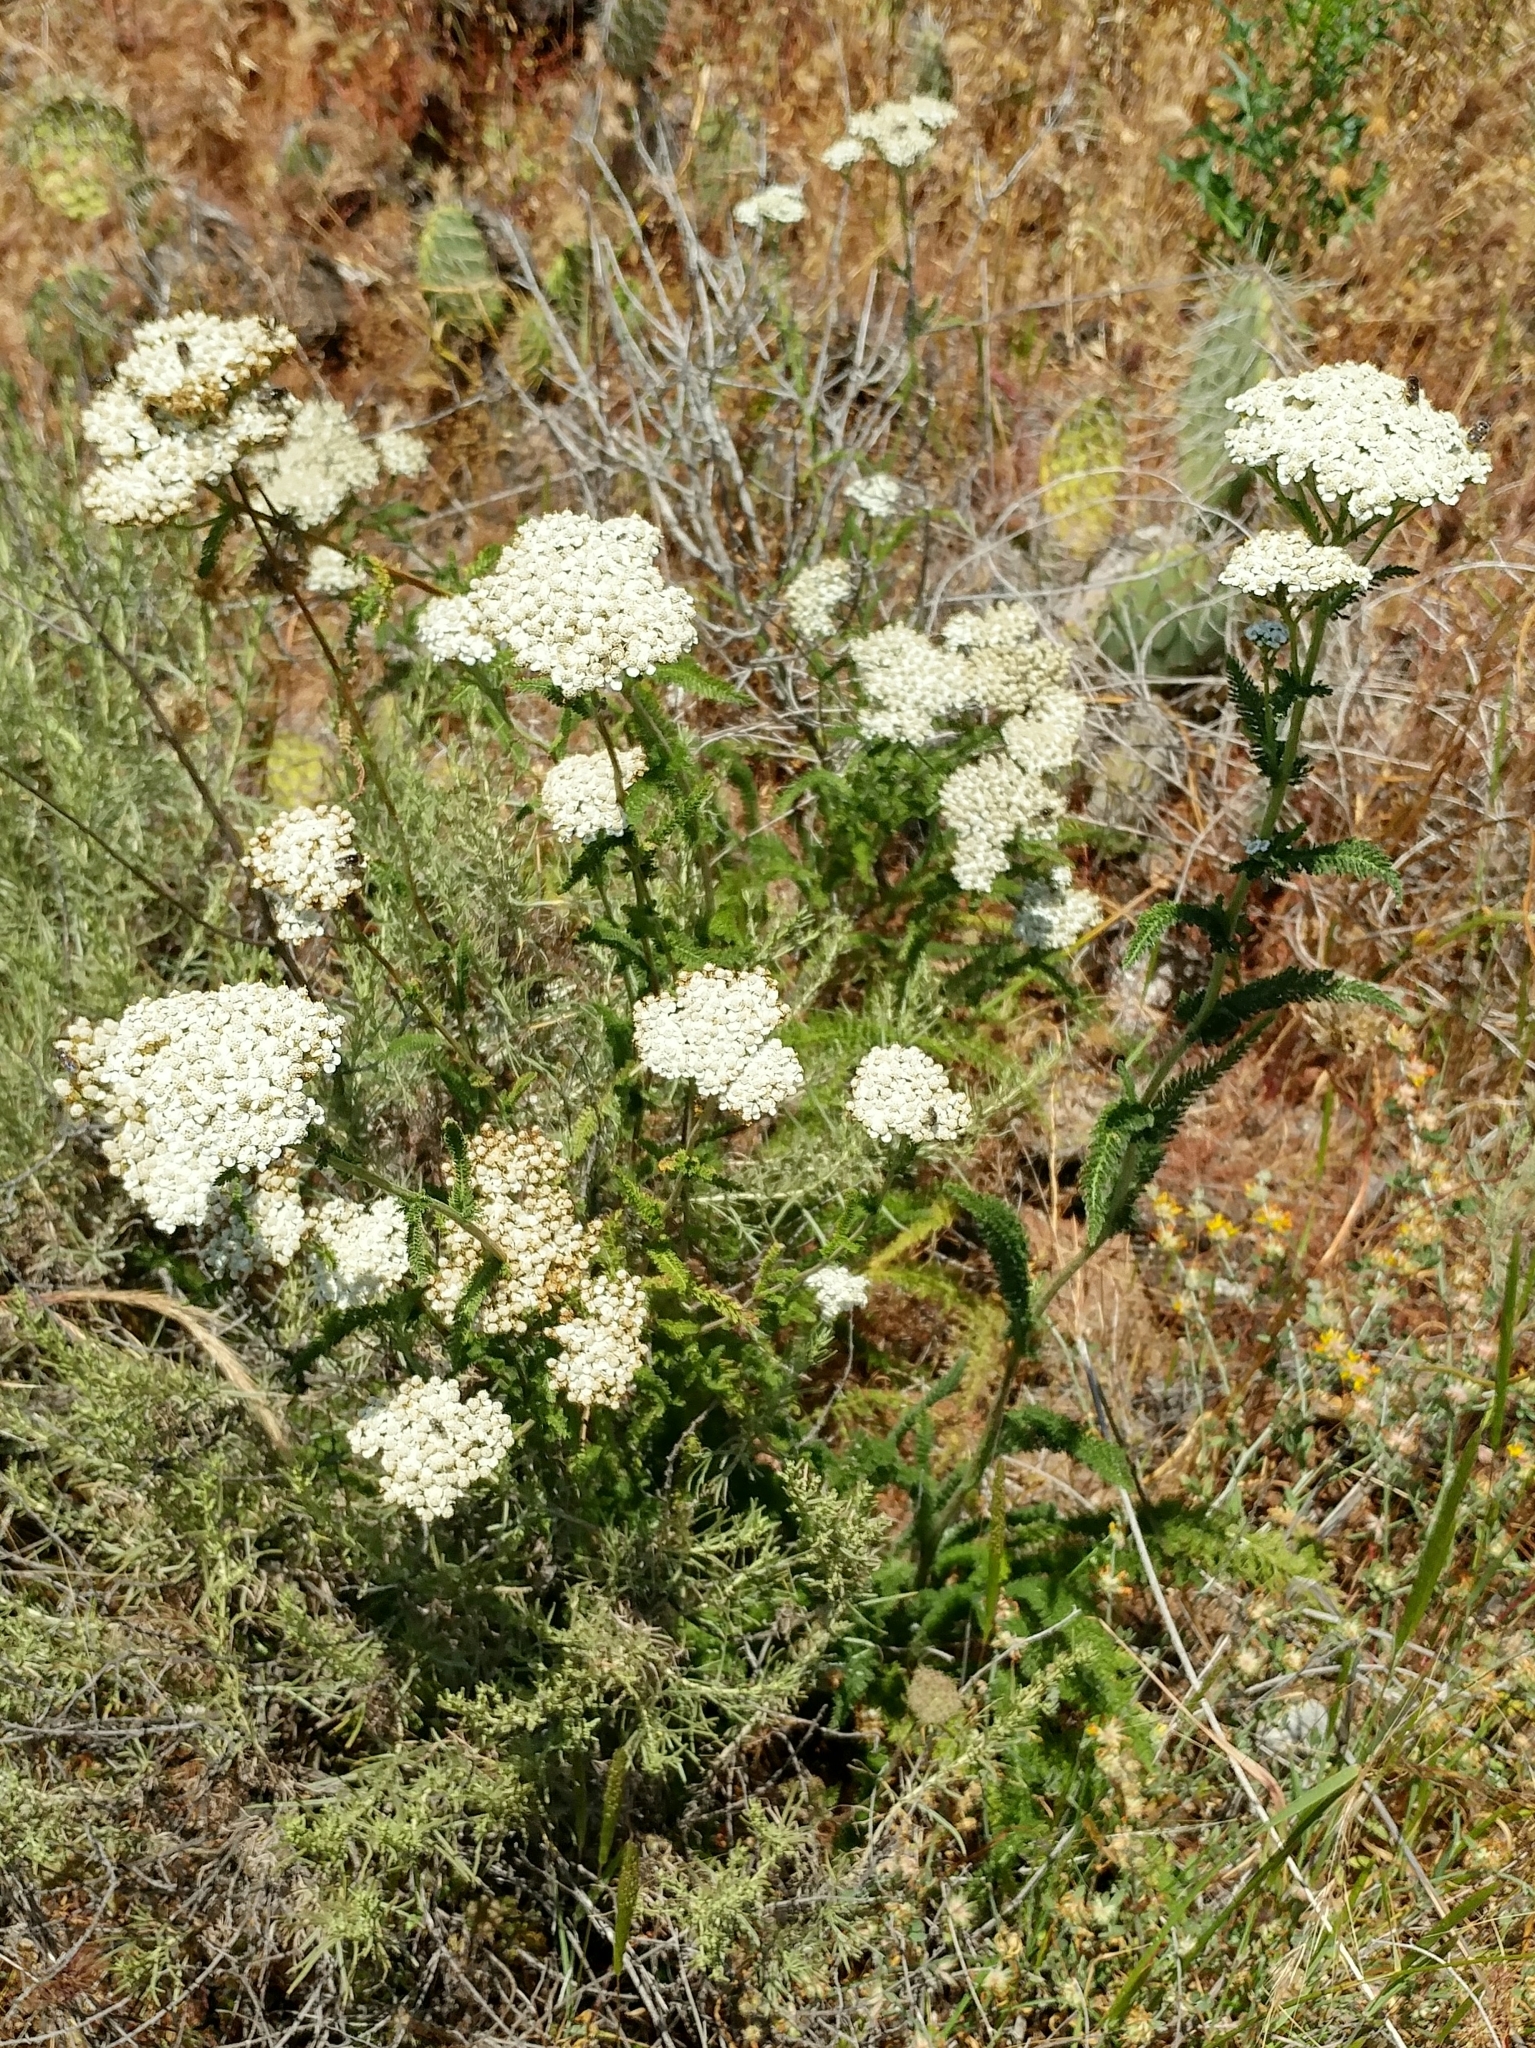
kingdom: Plantae
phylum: Tracheophyta
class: Magnoliopsida
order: Asterales
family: Asteraceae
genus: Achillea
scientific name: Achillea millefolium
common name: Yarrow
